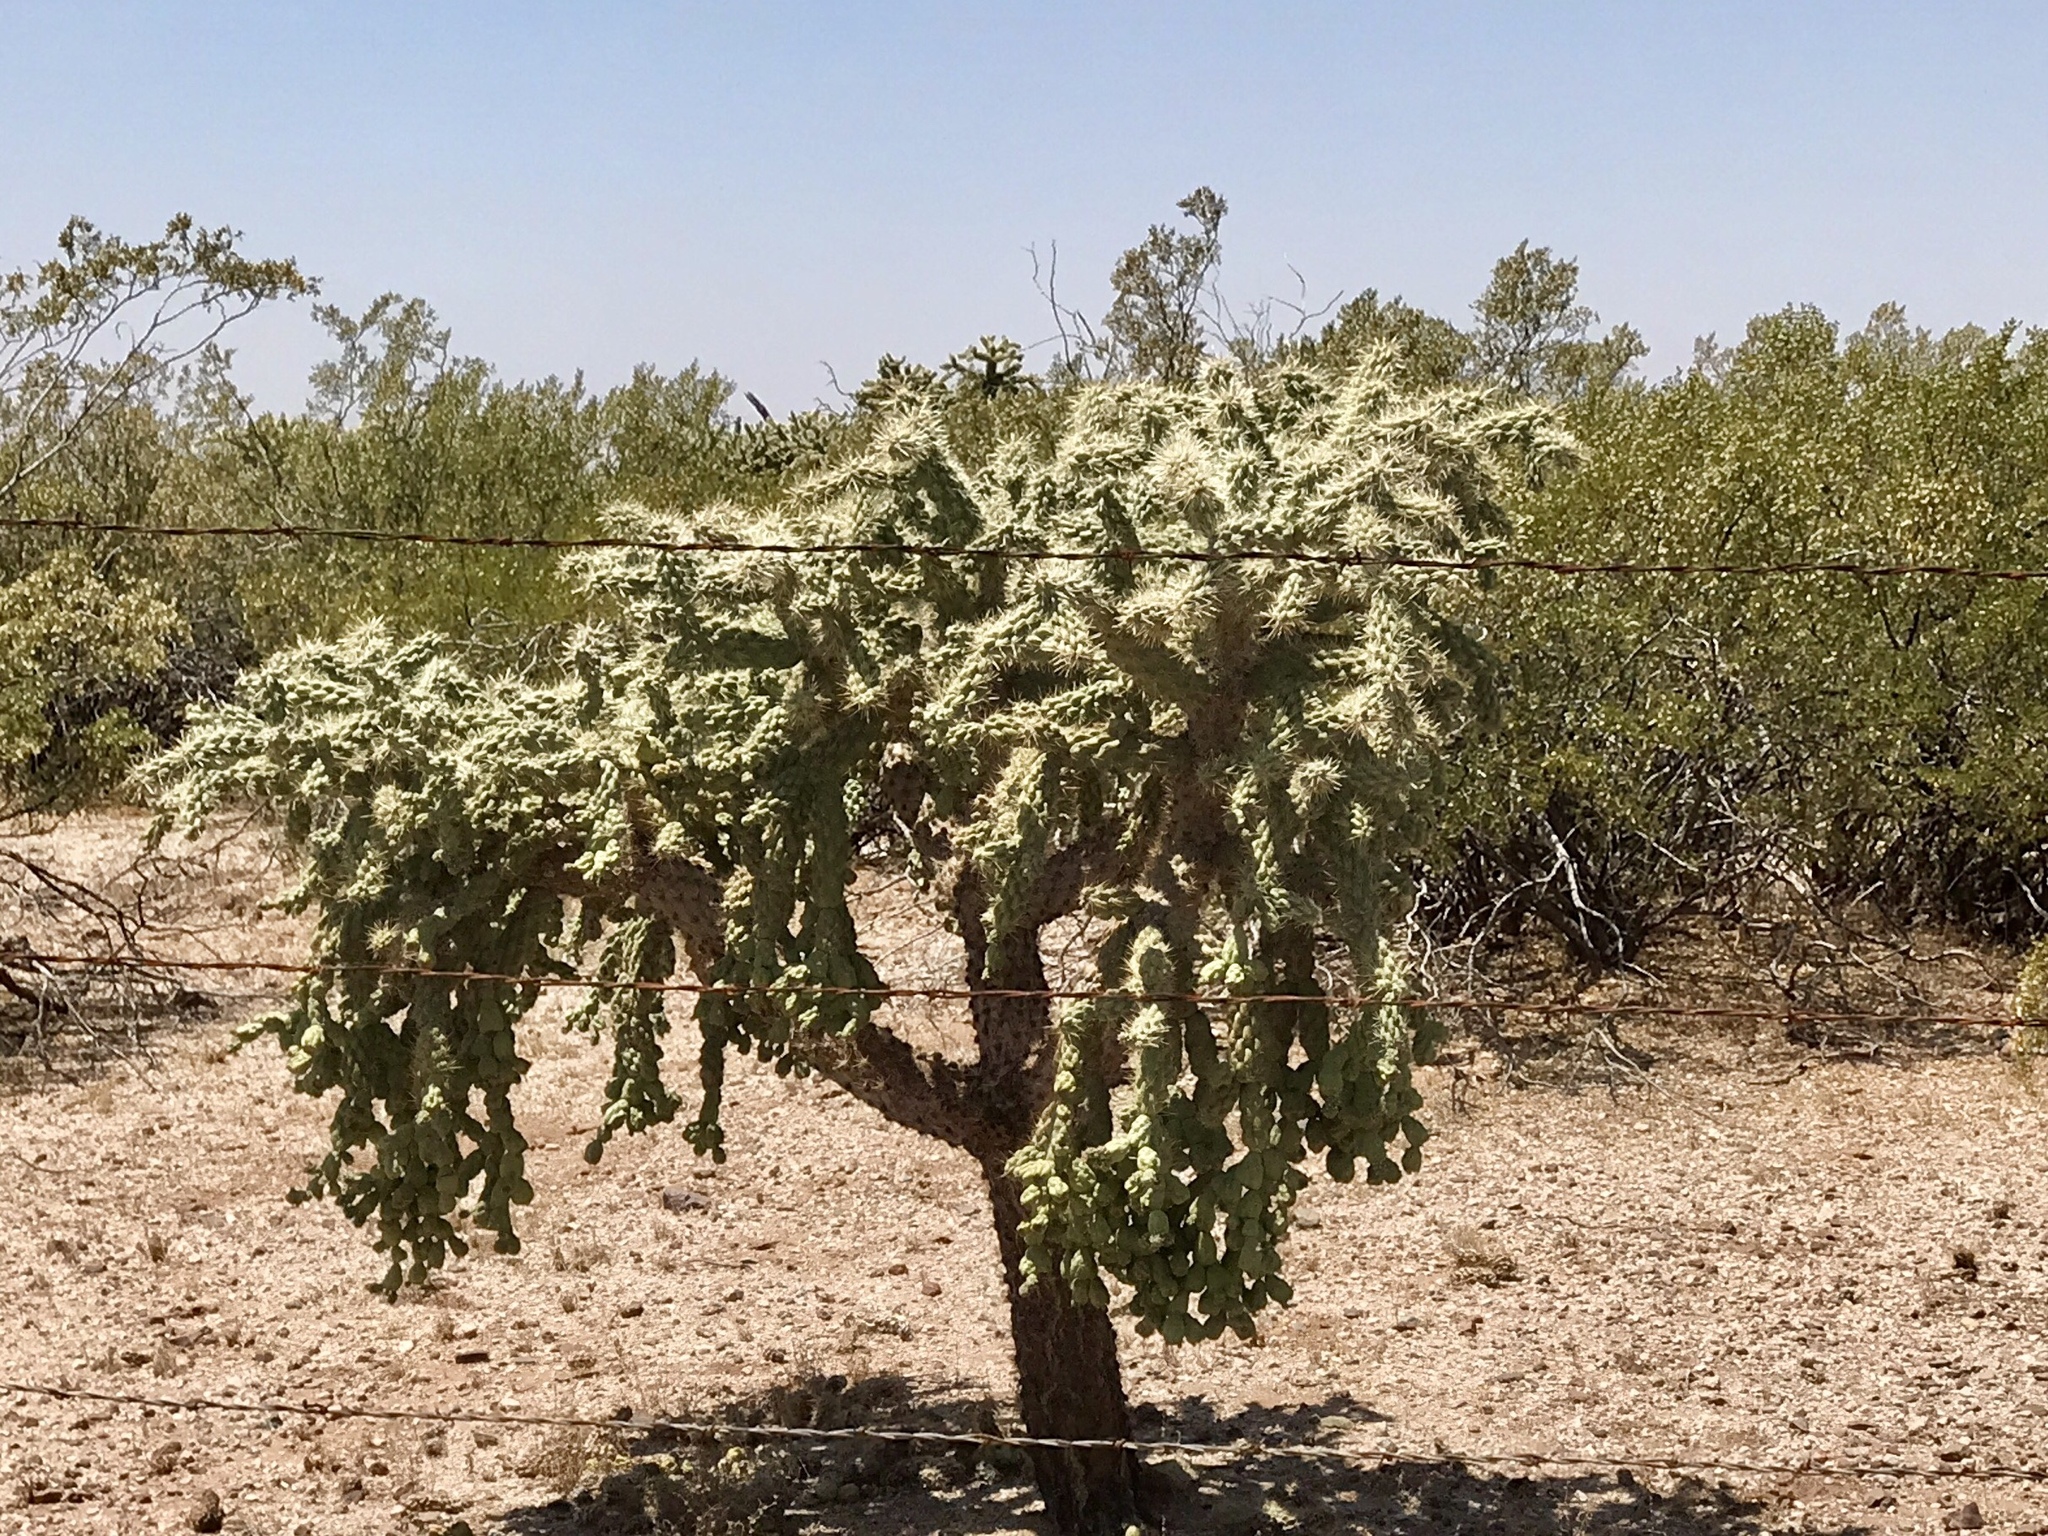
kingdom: Plantae
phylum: Tracheophyta
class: Magnoliopsida
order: Caryophyllales
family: Cactaceae
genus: Cylindropuntia
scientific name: Cylindropuntia fulgida
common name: Jumping cholla
